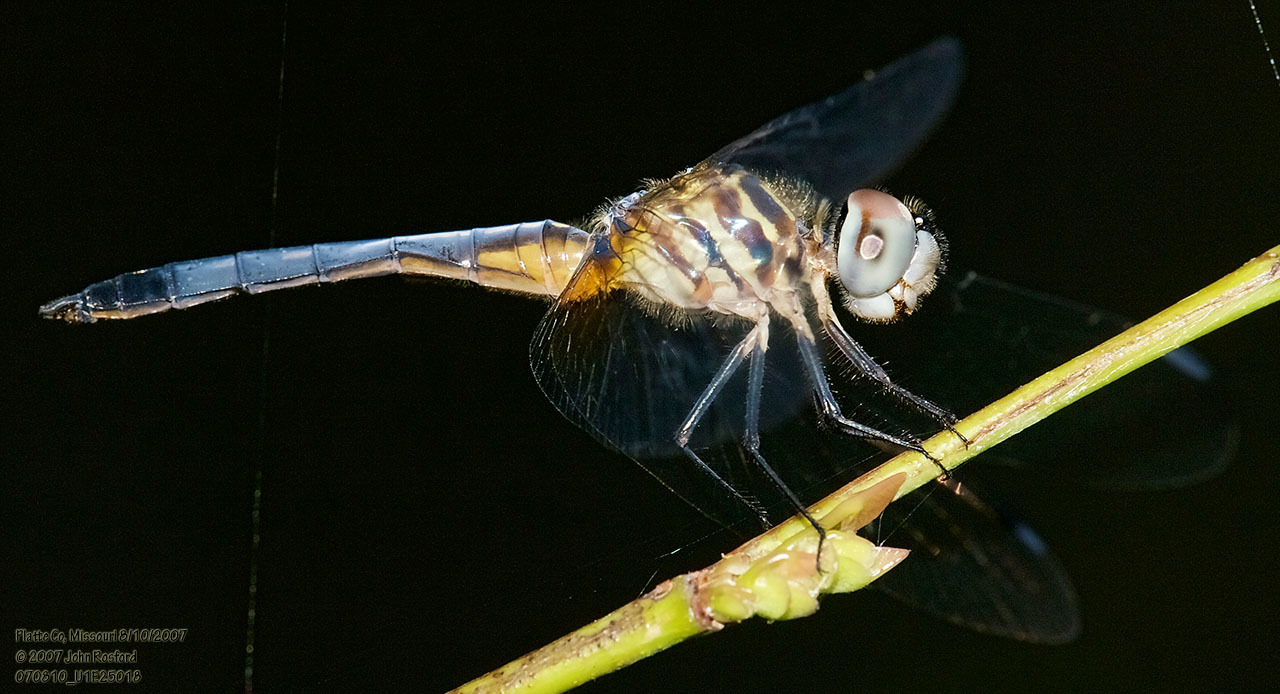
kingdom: Animalia
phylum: Arthropoda
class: Insecta
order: Odonata
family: Libellulidae
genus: Pachydiplax
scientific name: Pachydiplax longipennis
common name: Blue dasher
